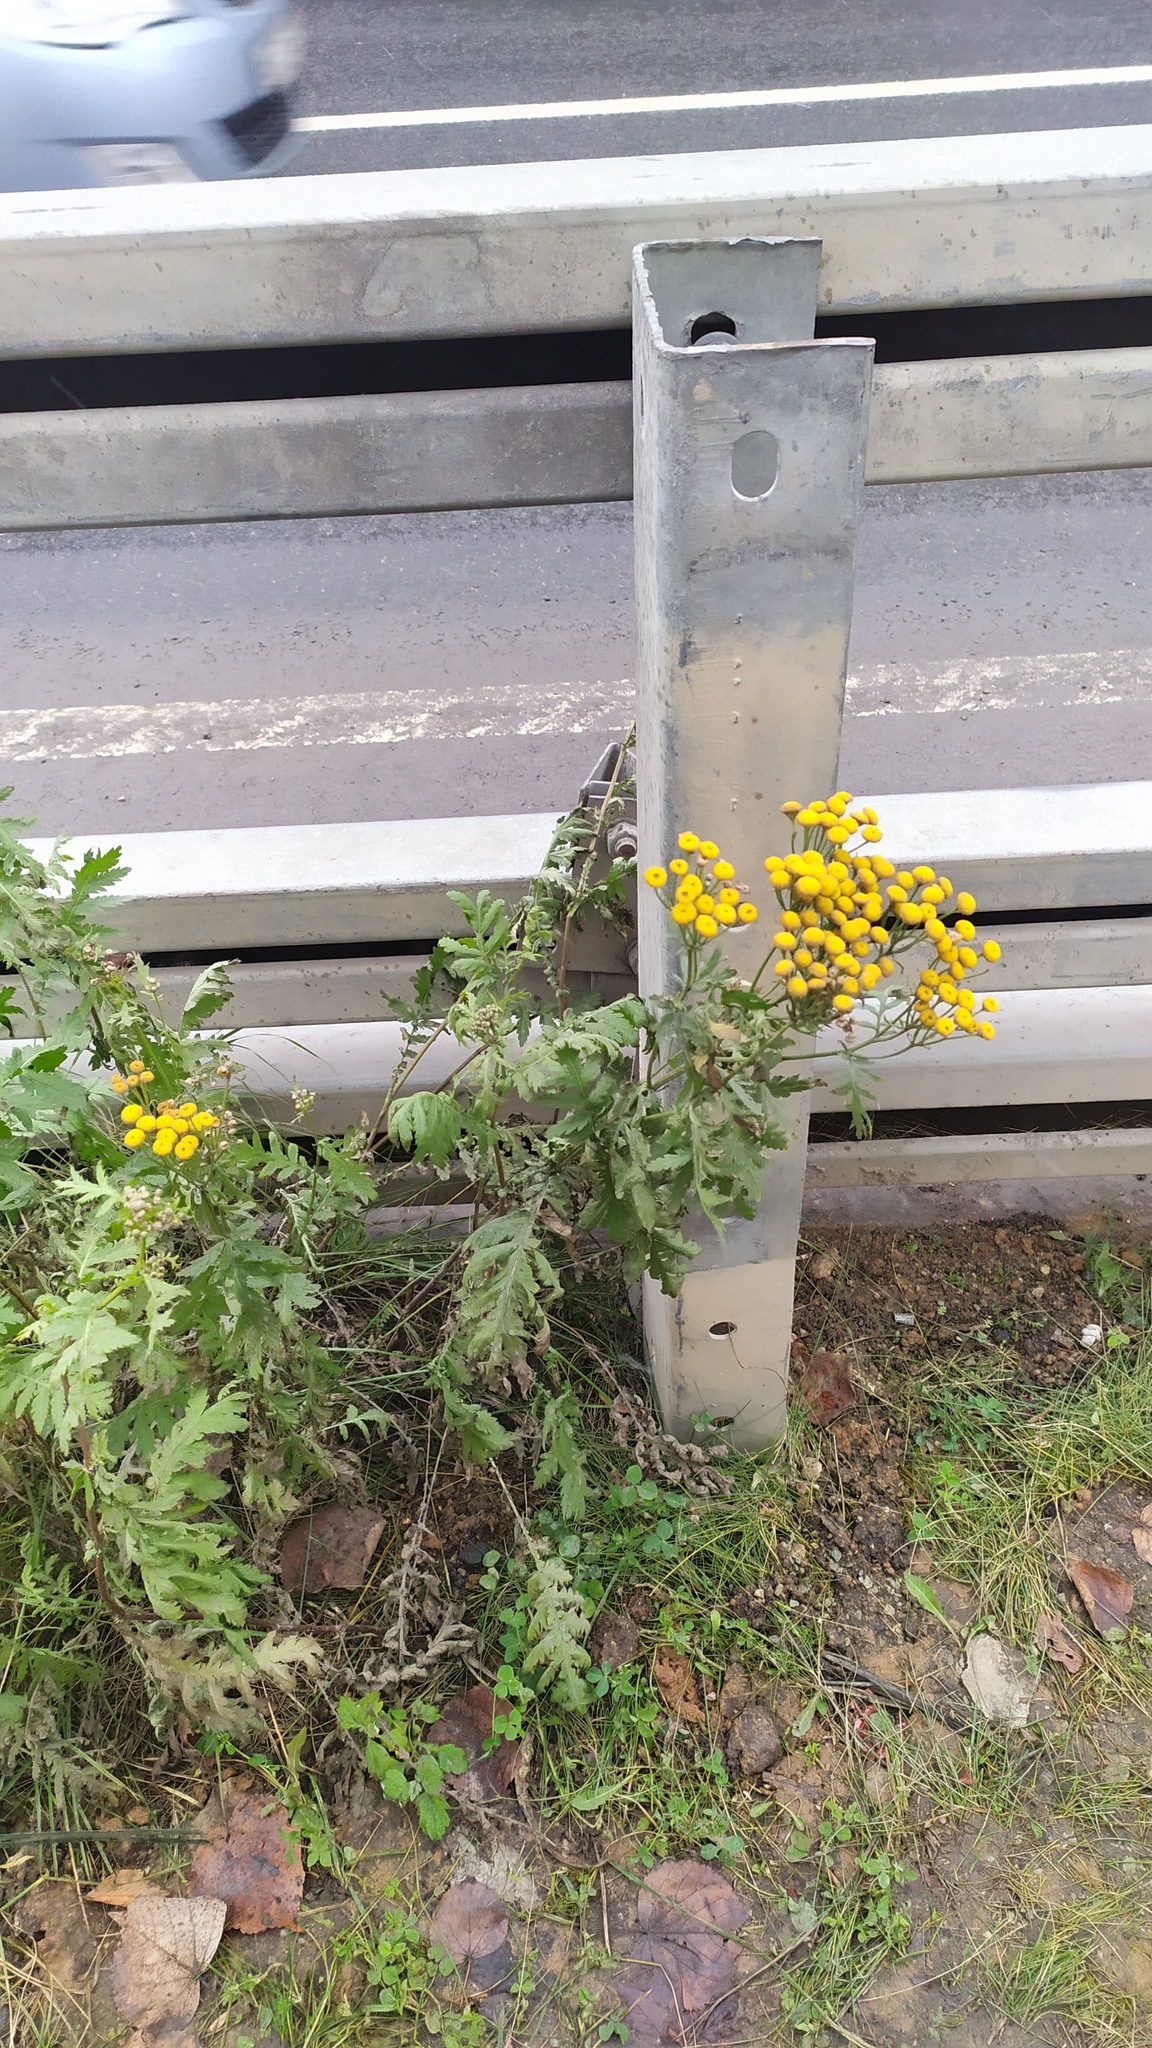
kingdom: Plantae
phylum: Tracheophyta
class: Magnoliopsida
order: Asterales
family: Asteraceae
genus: Tanacetum
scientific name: Tanacetum vulgare
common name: Common tansy
